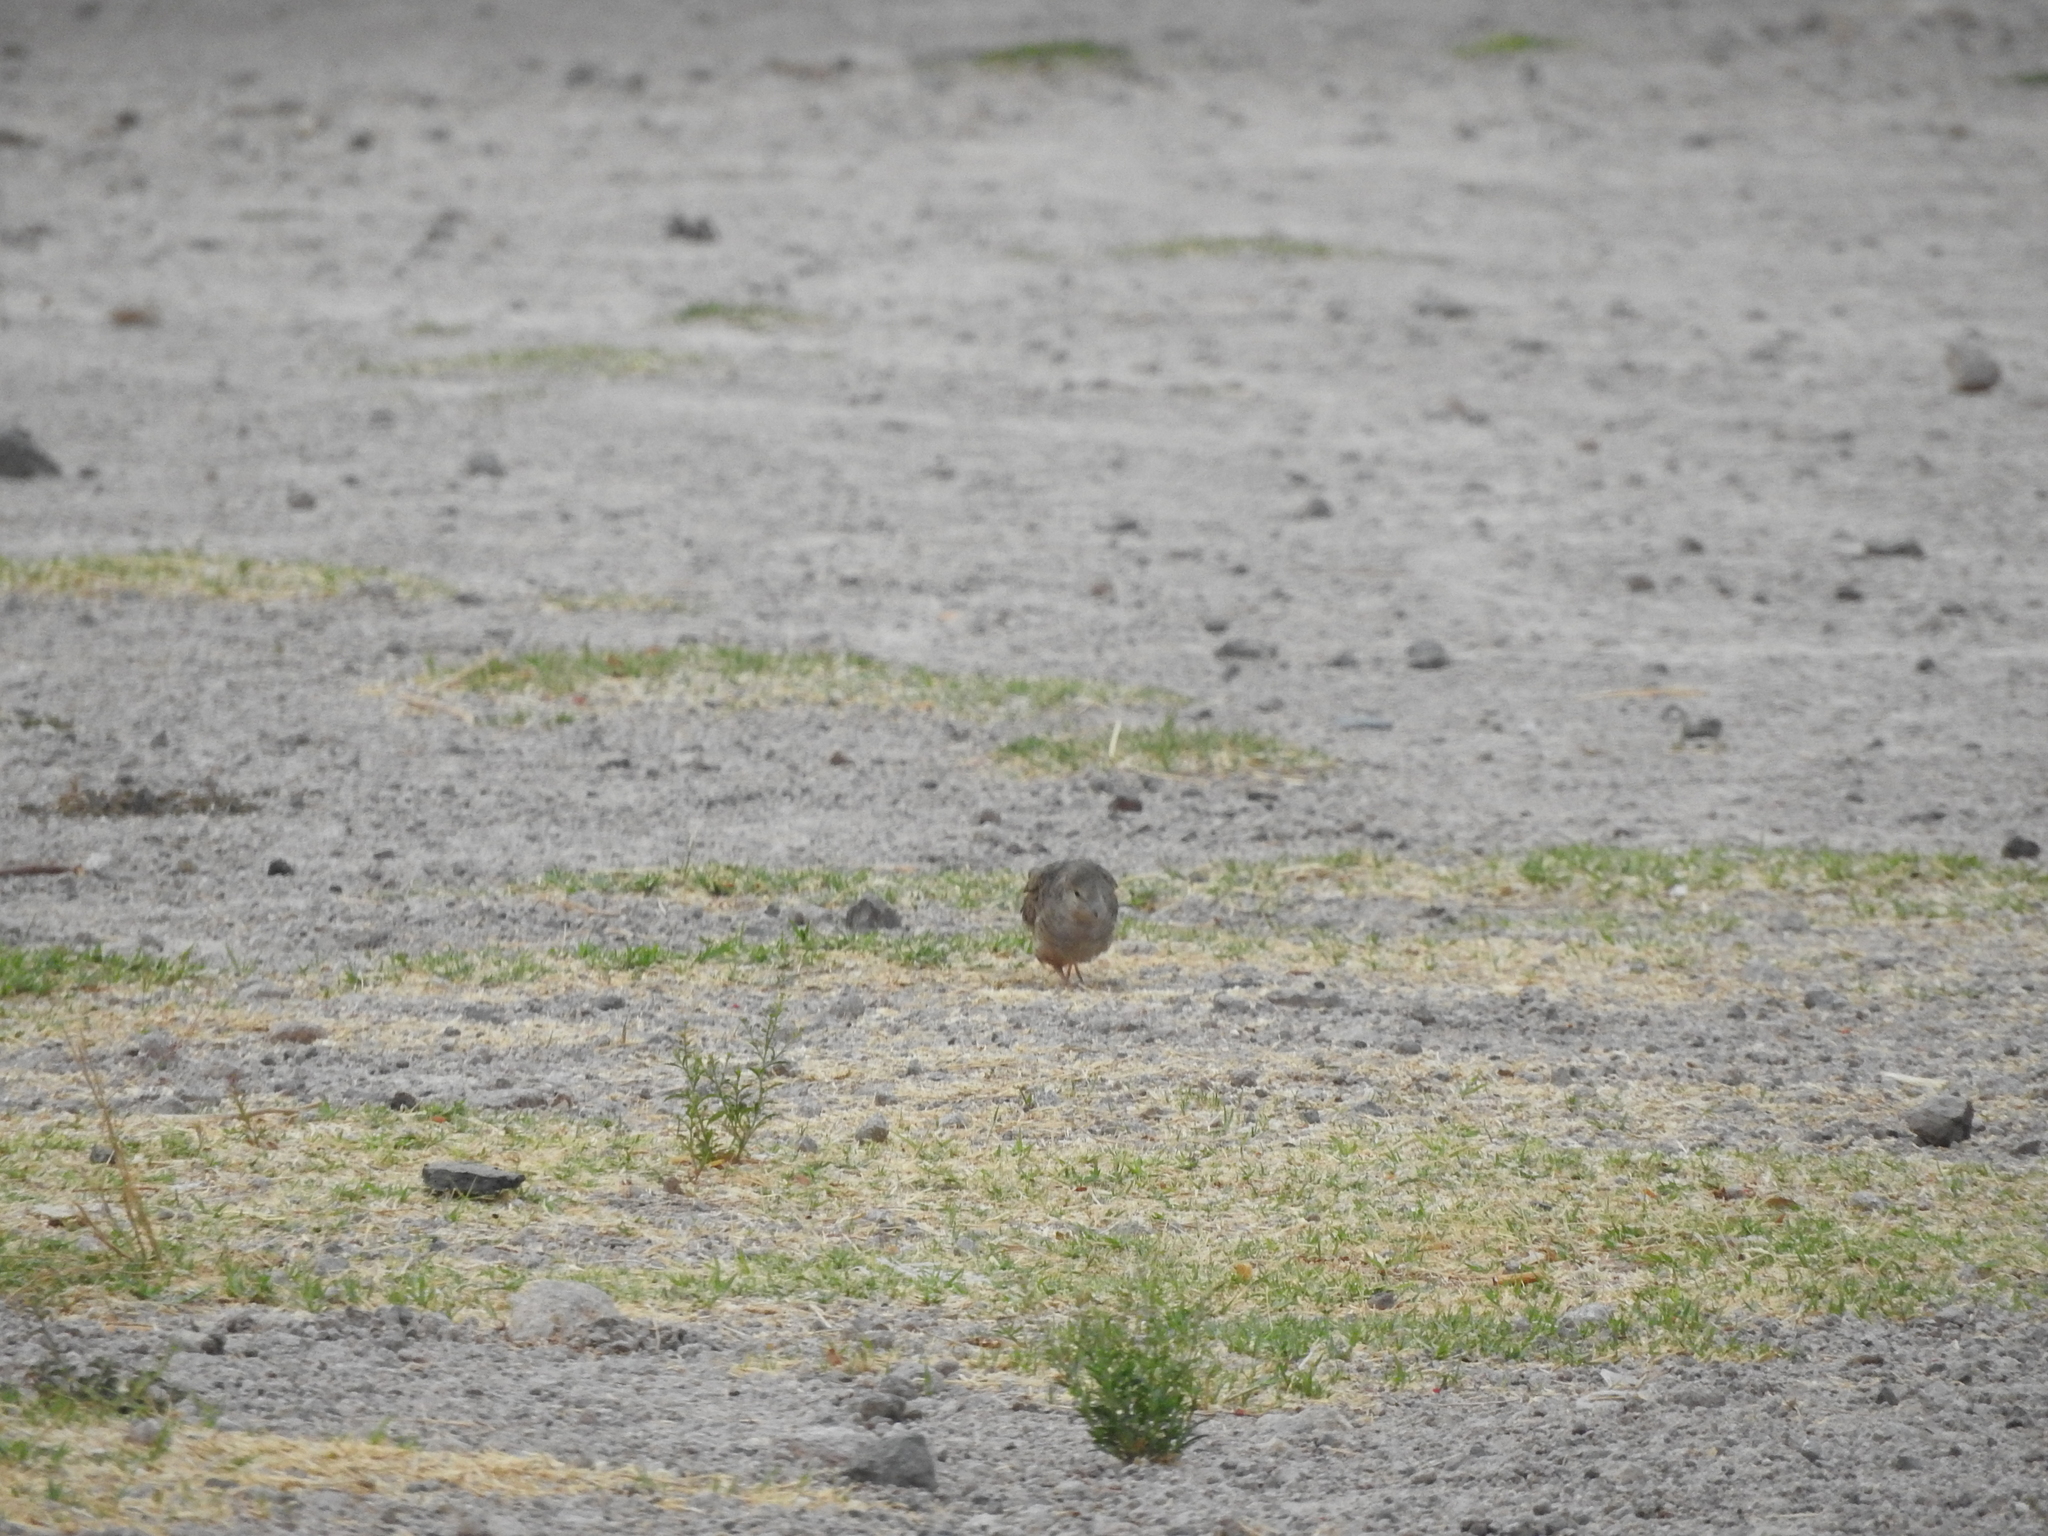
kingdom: Animalia
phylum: Chordata
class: Aves
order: Columbiformes
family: Columbidae
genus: Columbina
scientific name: Columbina inca
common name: Inca dove
